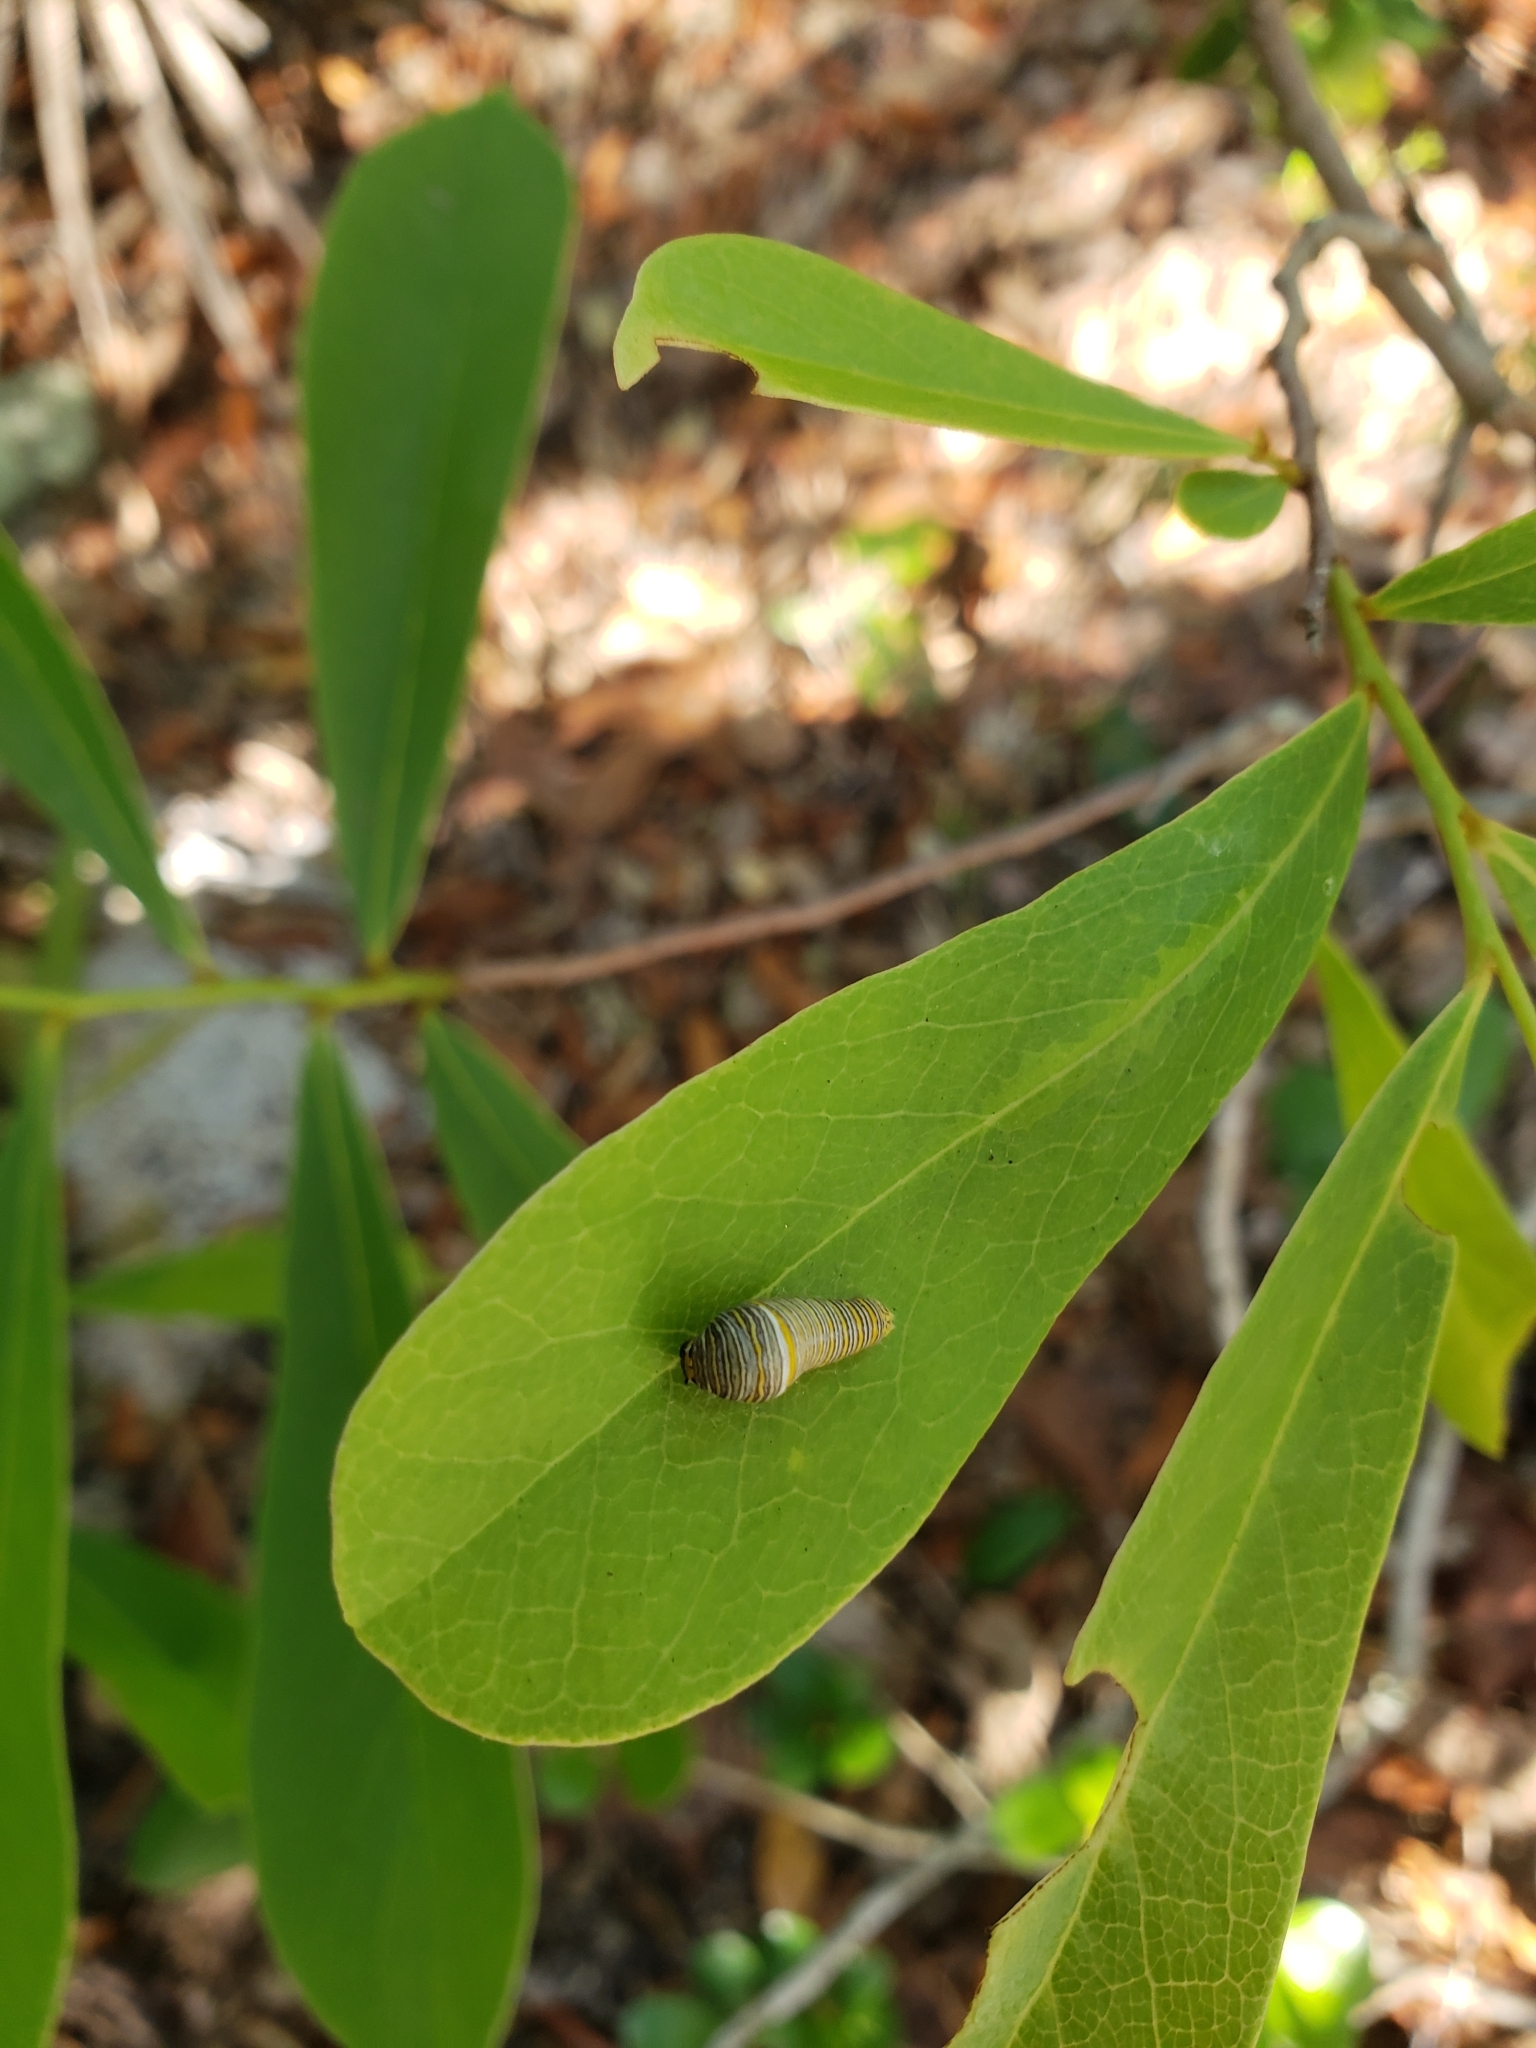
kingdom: Animalia
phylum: Arthropoda
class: Insecta
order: Lepidoptera
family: Papilionidae
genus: Protographium
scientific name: Protographium marcellus
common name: Zebra swallowtail
